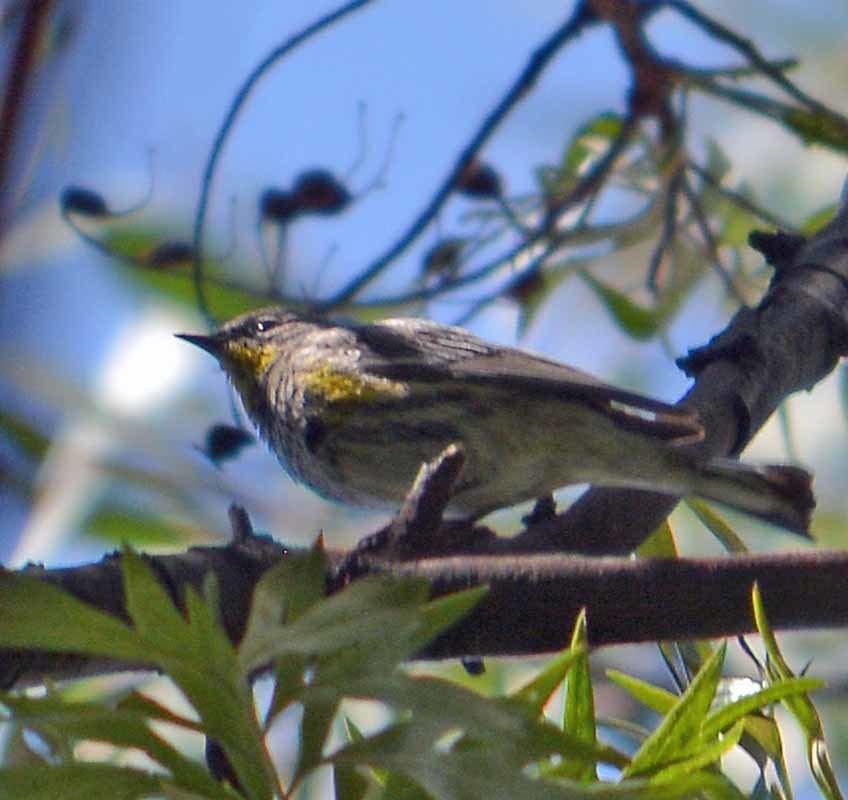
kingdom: Animalia
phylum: Chordata
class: Aves
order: Passeriformes
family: Parulidae
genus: Setophaga
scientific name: Setophaga coronata
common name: Myrtle warbler
